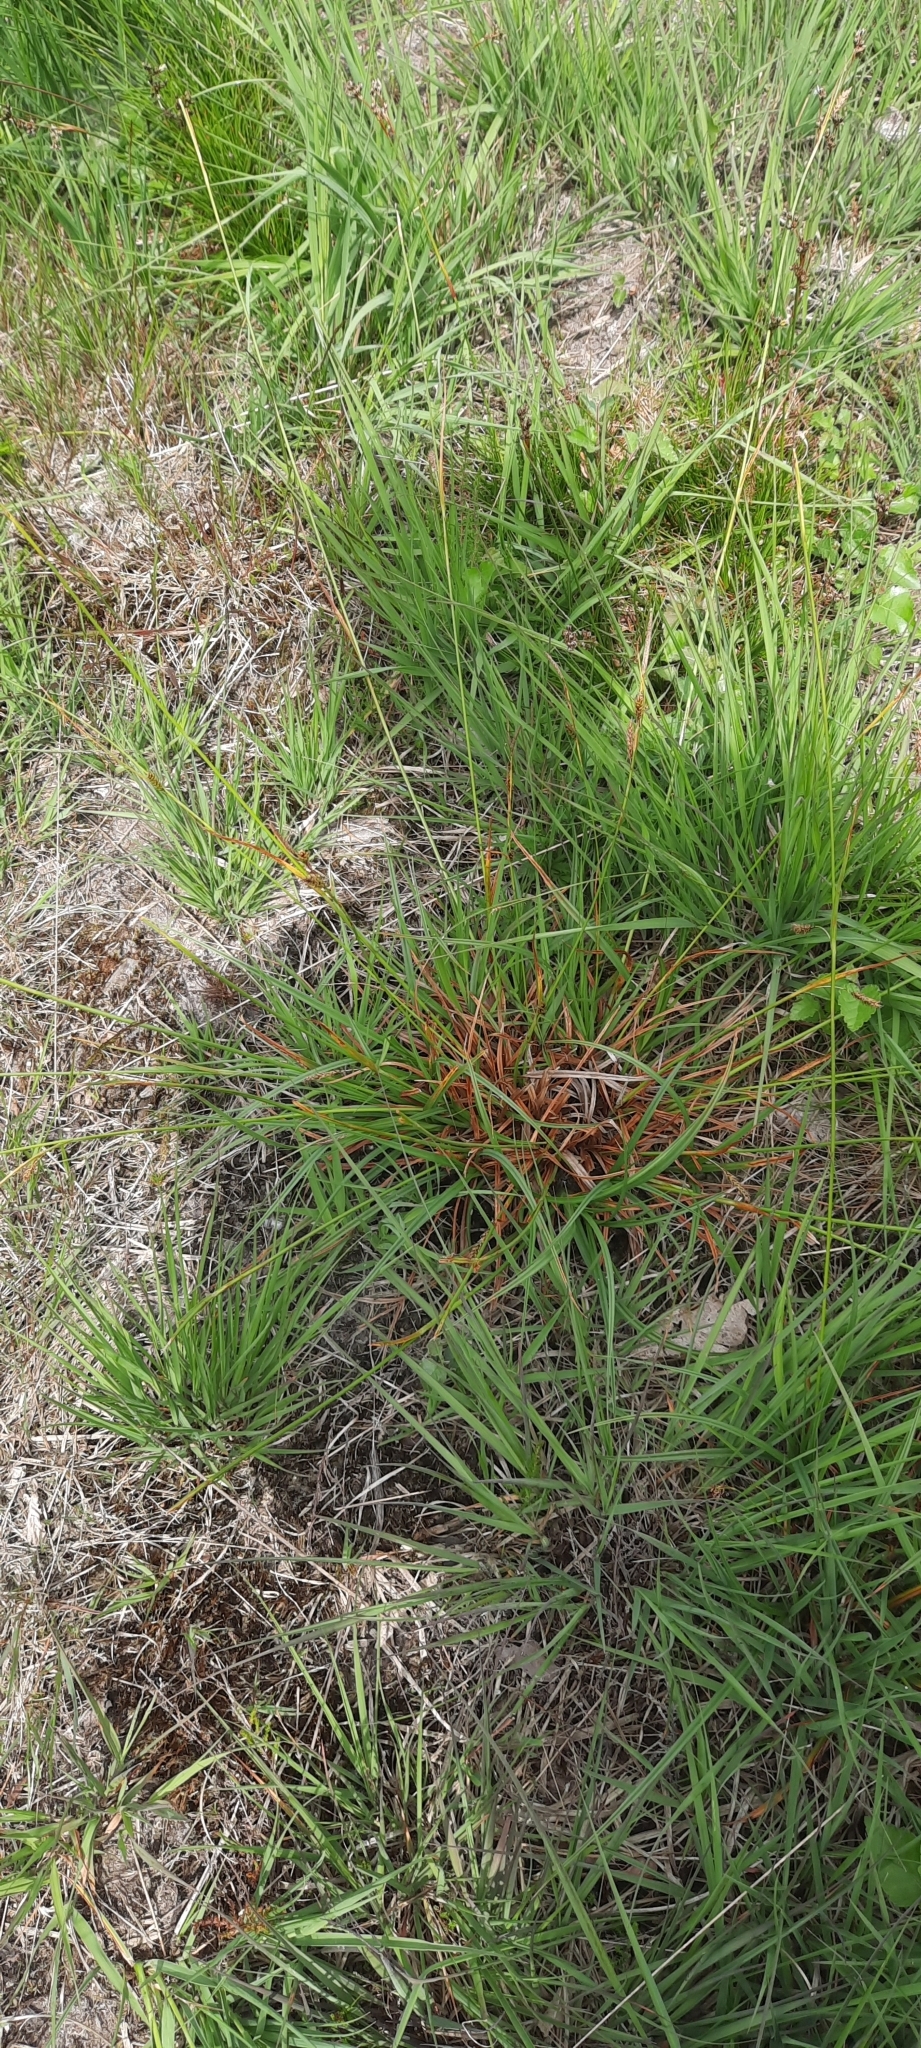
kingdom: Plantae
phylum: Tracheophyta
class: Liliopsida
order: Poales
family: Cyperaceae
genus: Carex
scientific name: Carex binervis
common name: Green-ribbed sedge
